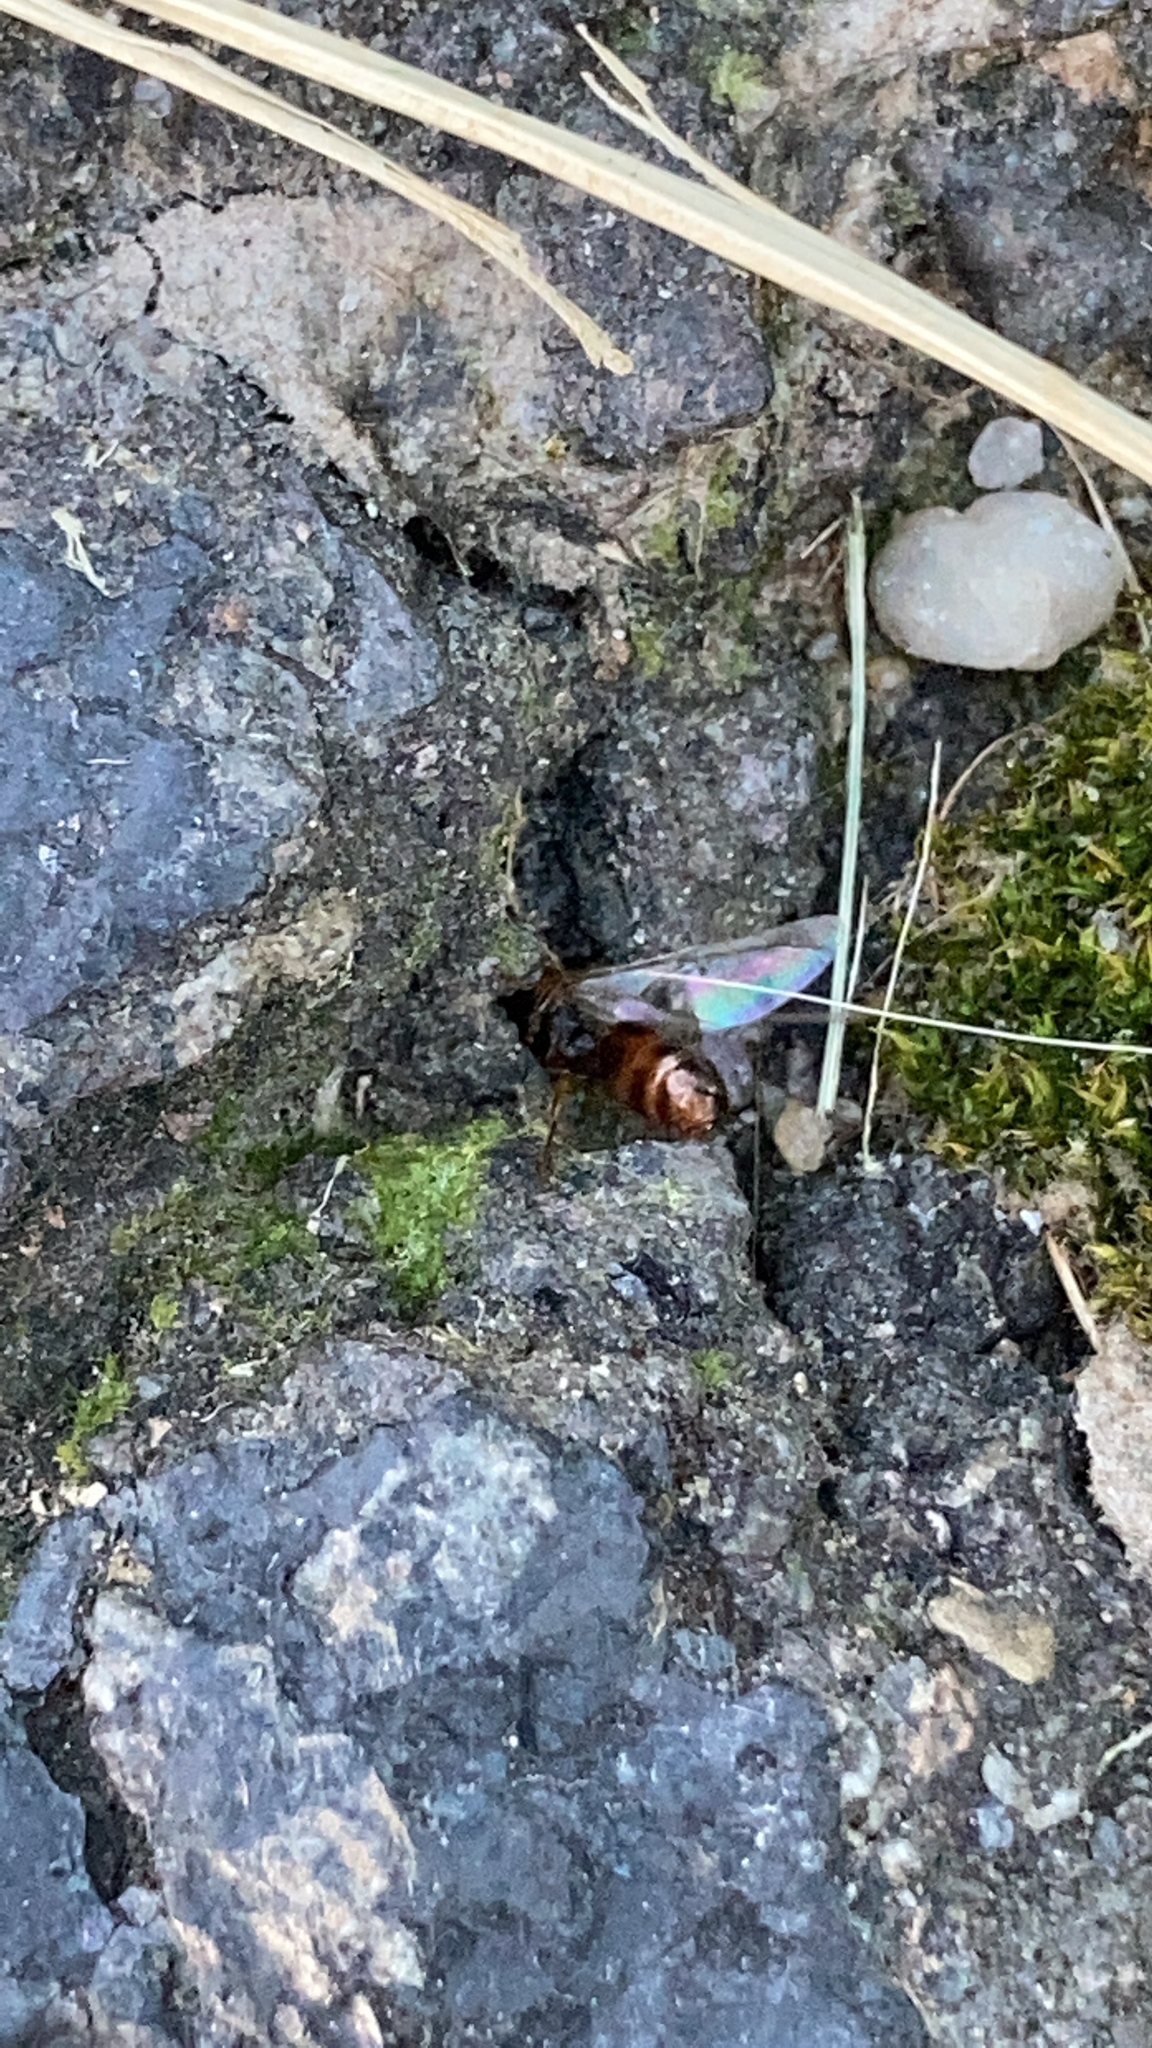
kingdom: Animalia
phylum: Arthropoda
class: Insecta
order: Hymenoptera
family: Formicidae
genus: Tetramorium
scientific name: Tetramorium immigrans
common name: Pavement ant
